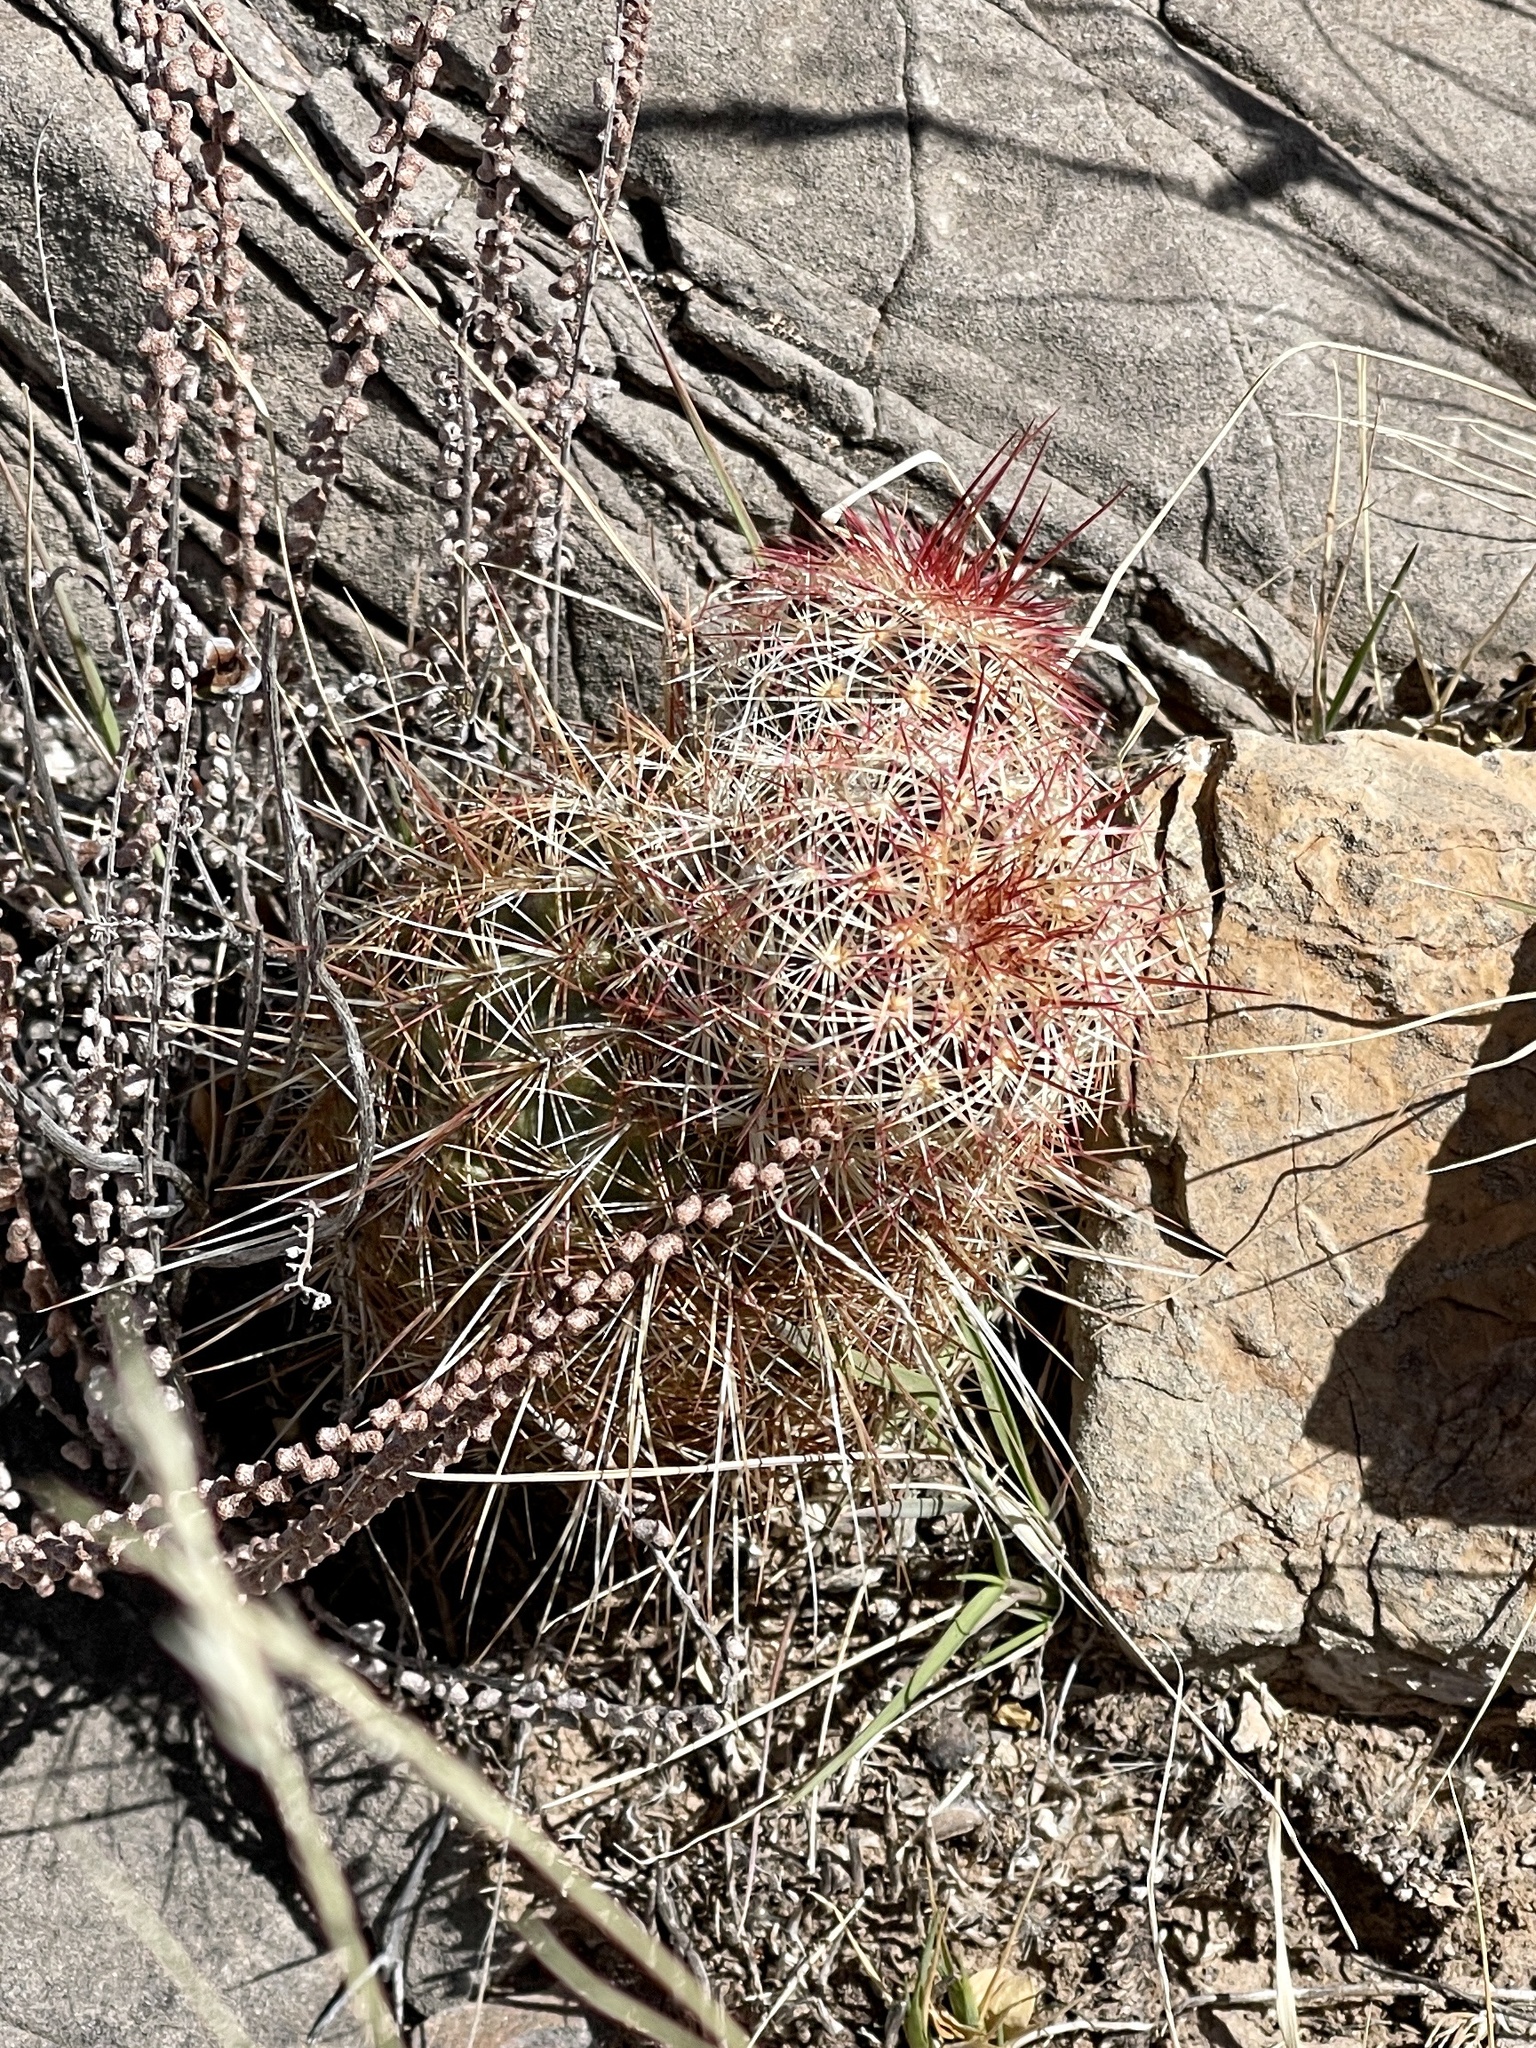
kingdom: Plantae
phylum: Tracheophyta
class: Magnoliopsida
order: Caryophyllales
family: Cactaceae
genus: Echinocereus
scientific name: Echinocereus viridiflorus
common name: Nylon hedgehog cactus
